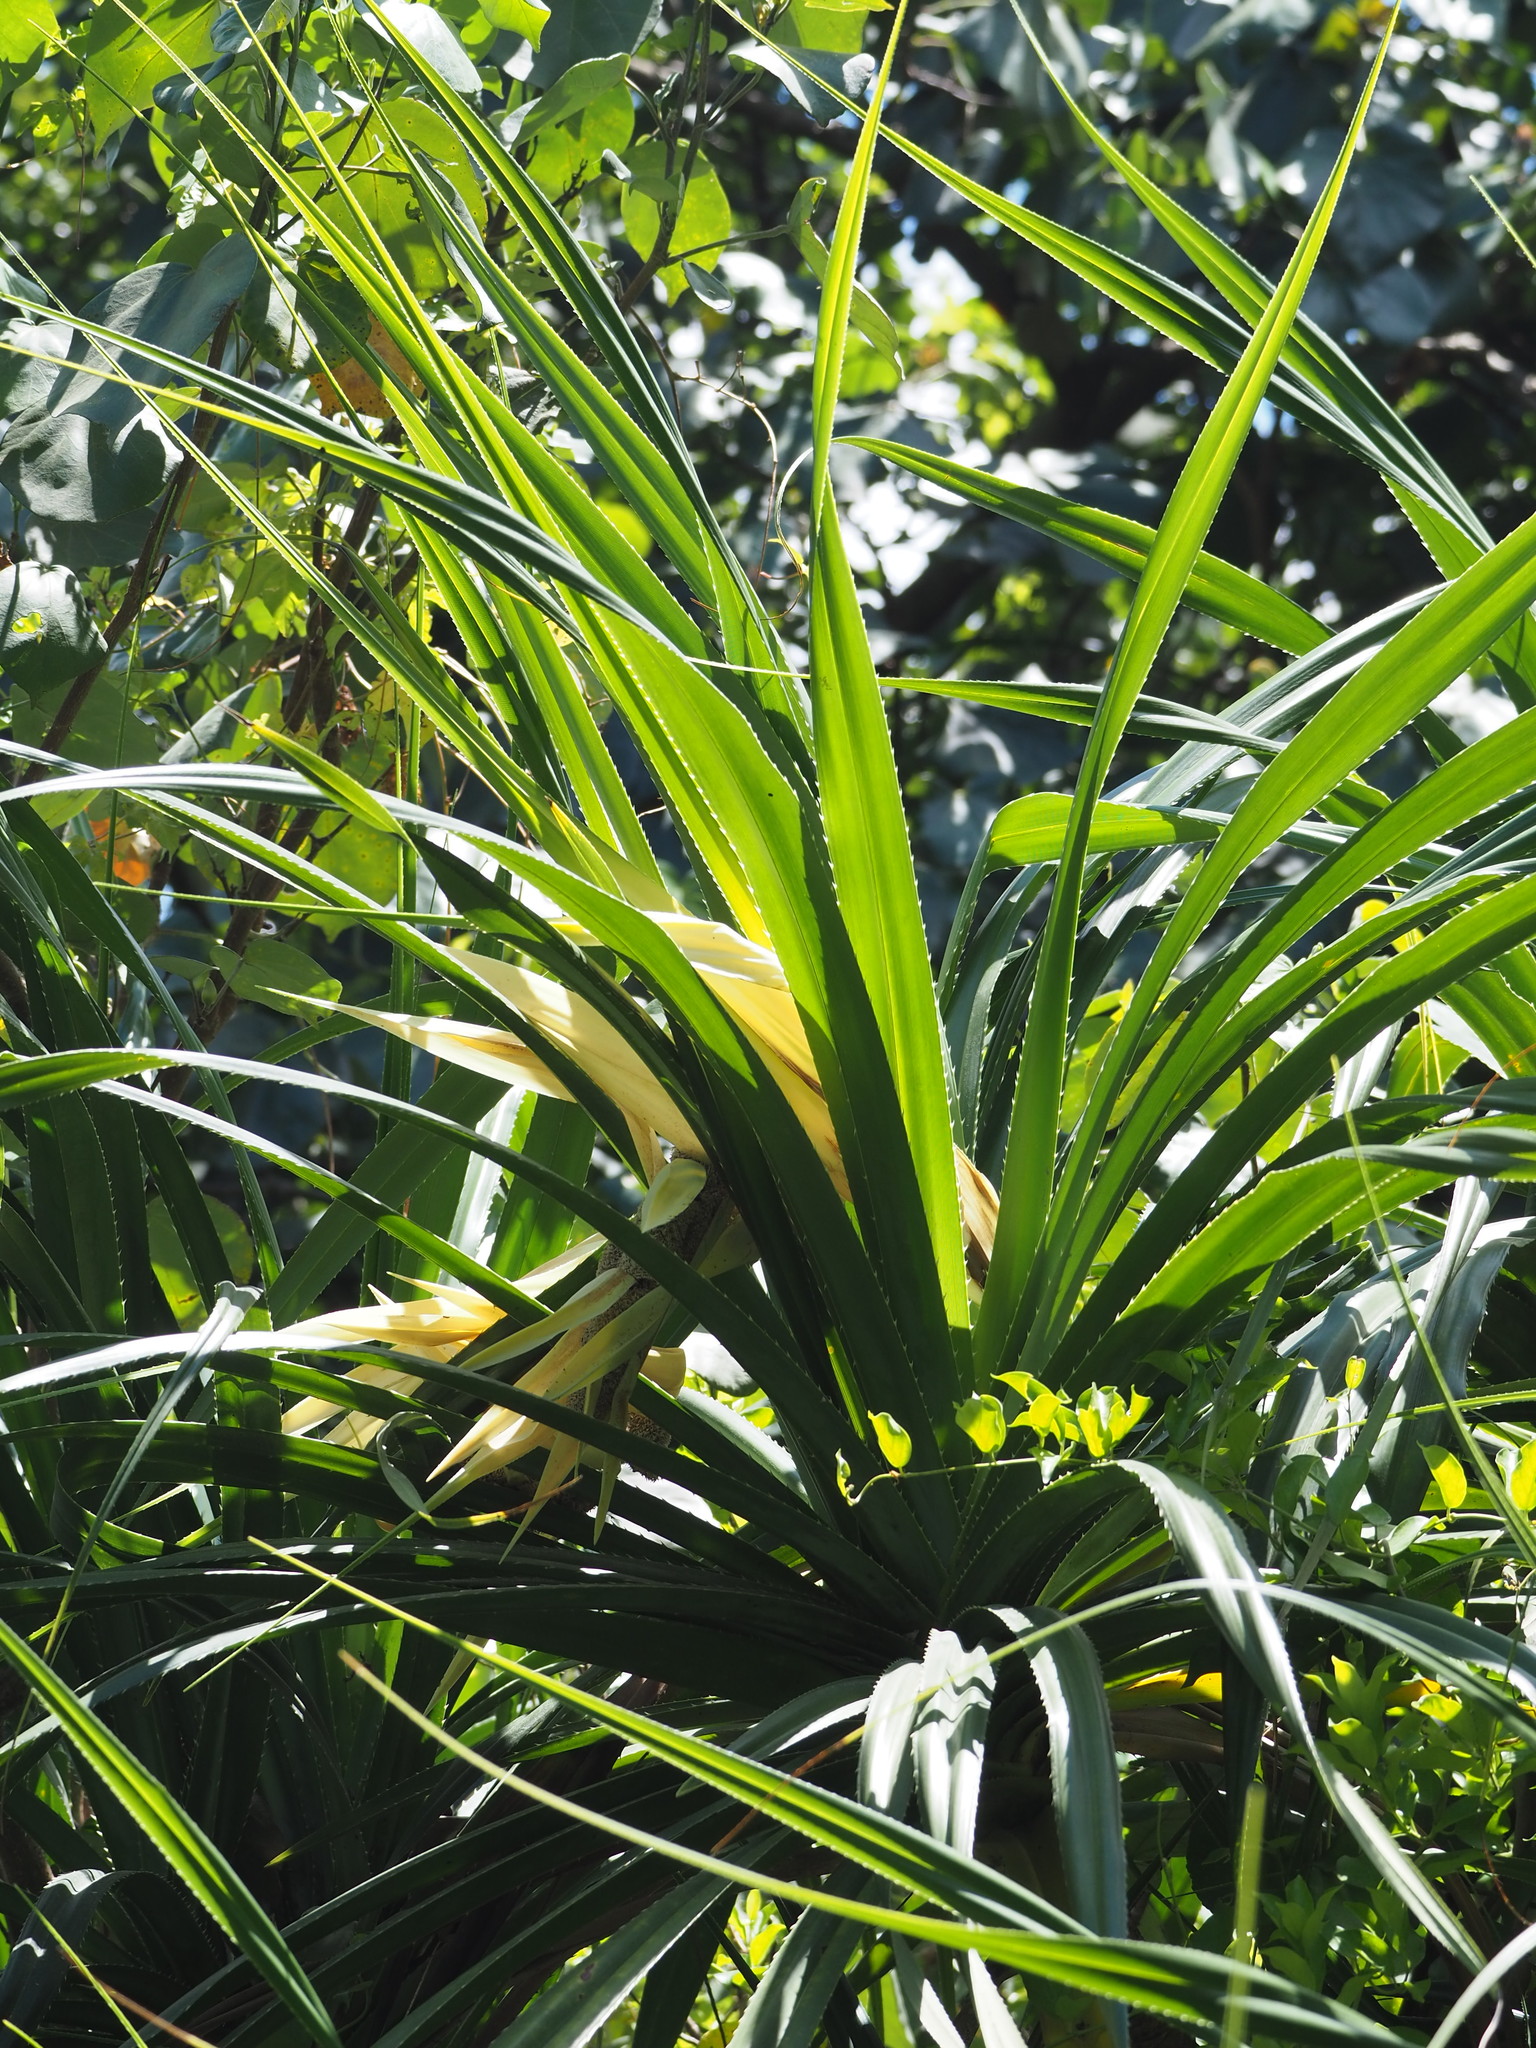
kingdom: Plantae
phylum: Tracheophyta
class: Liliopsida
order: Pandanales
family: Pandanaceae
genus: Pandanus
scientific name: Pandanus odorifer
